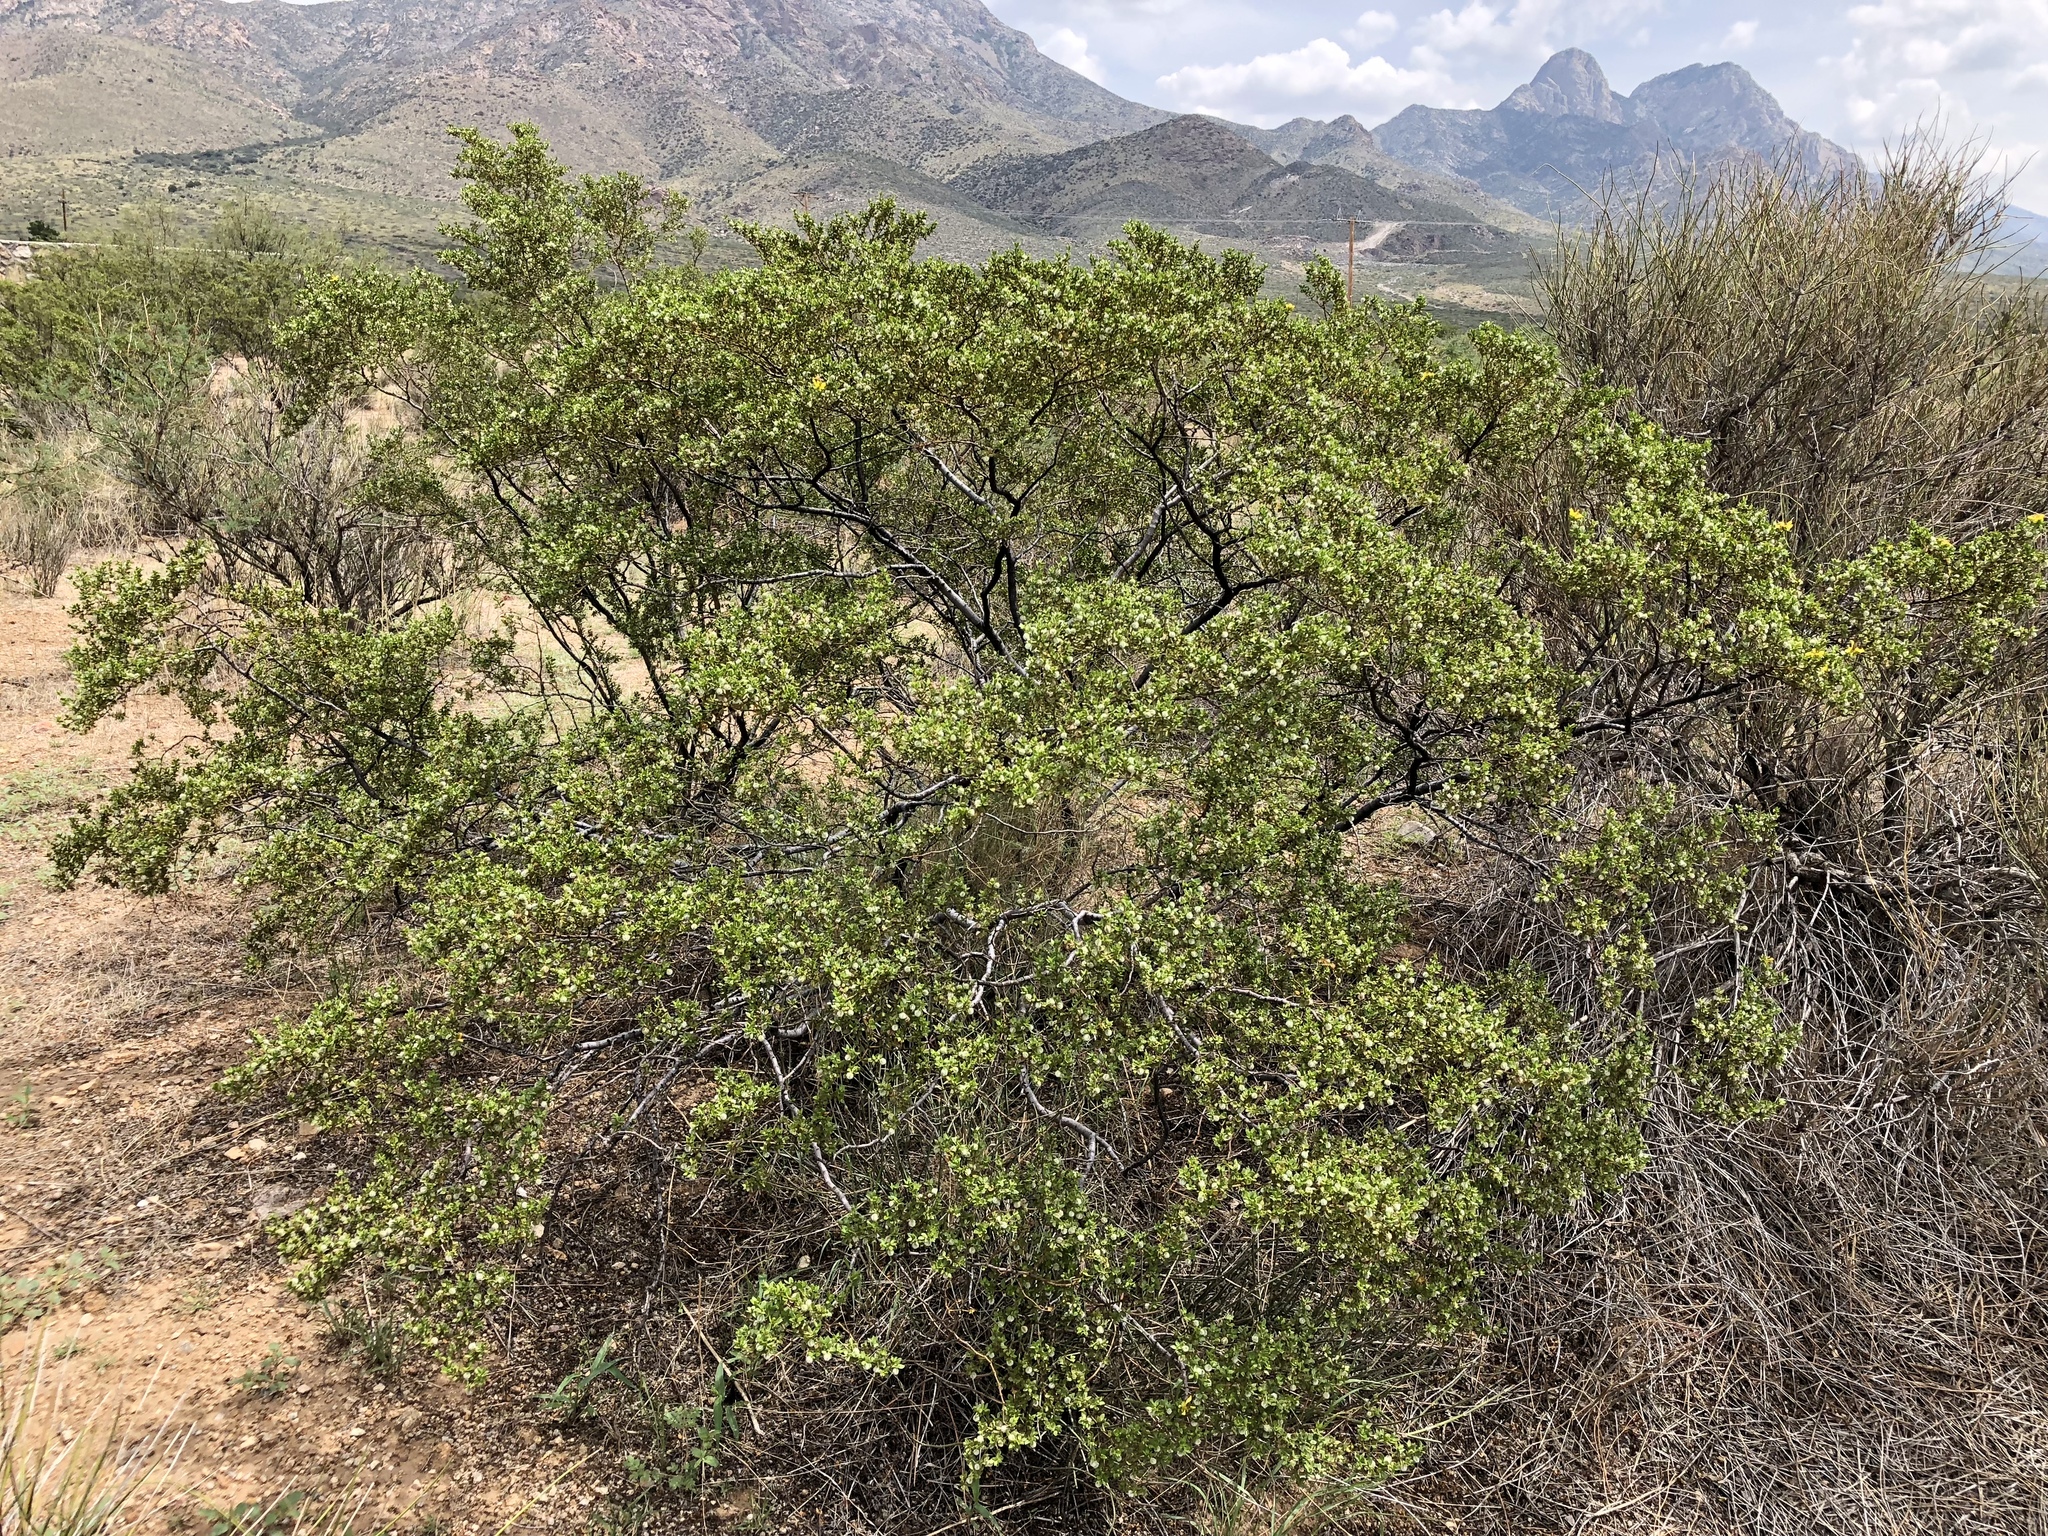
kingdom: Plantae
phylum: Tracheophyta
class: Magnoliopsida
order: Zygophyllales
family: Zygophyllaceae
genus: Larrea
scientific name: Larrea tridentata
